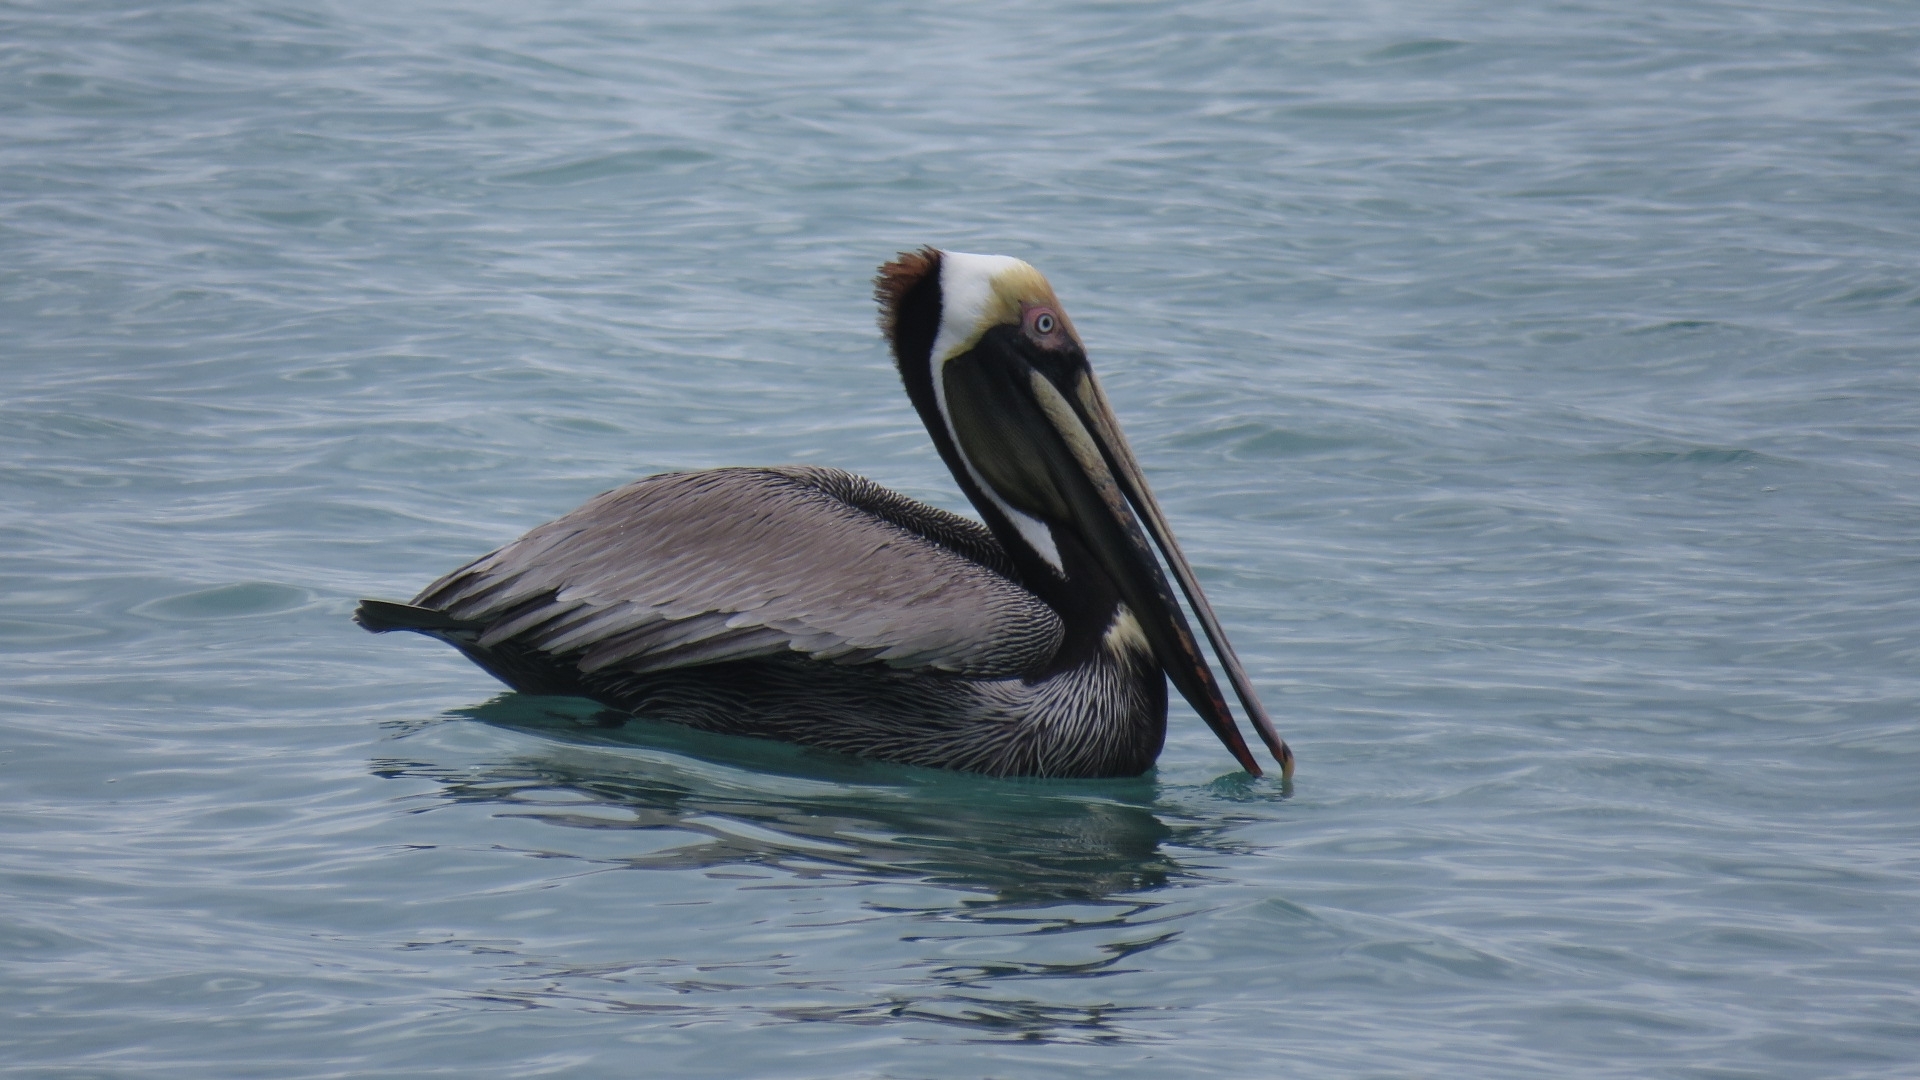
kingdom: Animalia
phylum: Chordata
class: Aves
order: Pelecaniformes
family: Pelecanidae
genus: Pelecanus
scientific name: Pelecanus occidentalis
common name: Brown pelican
